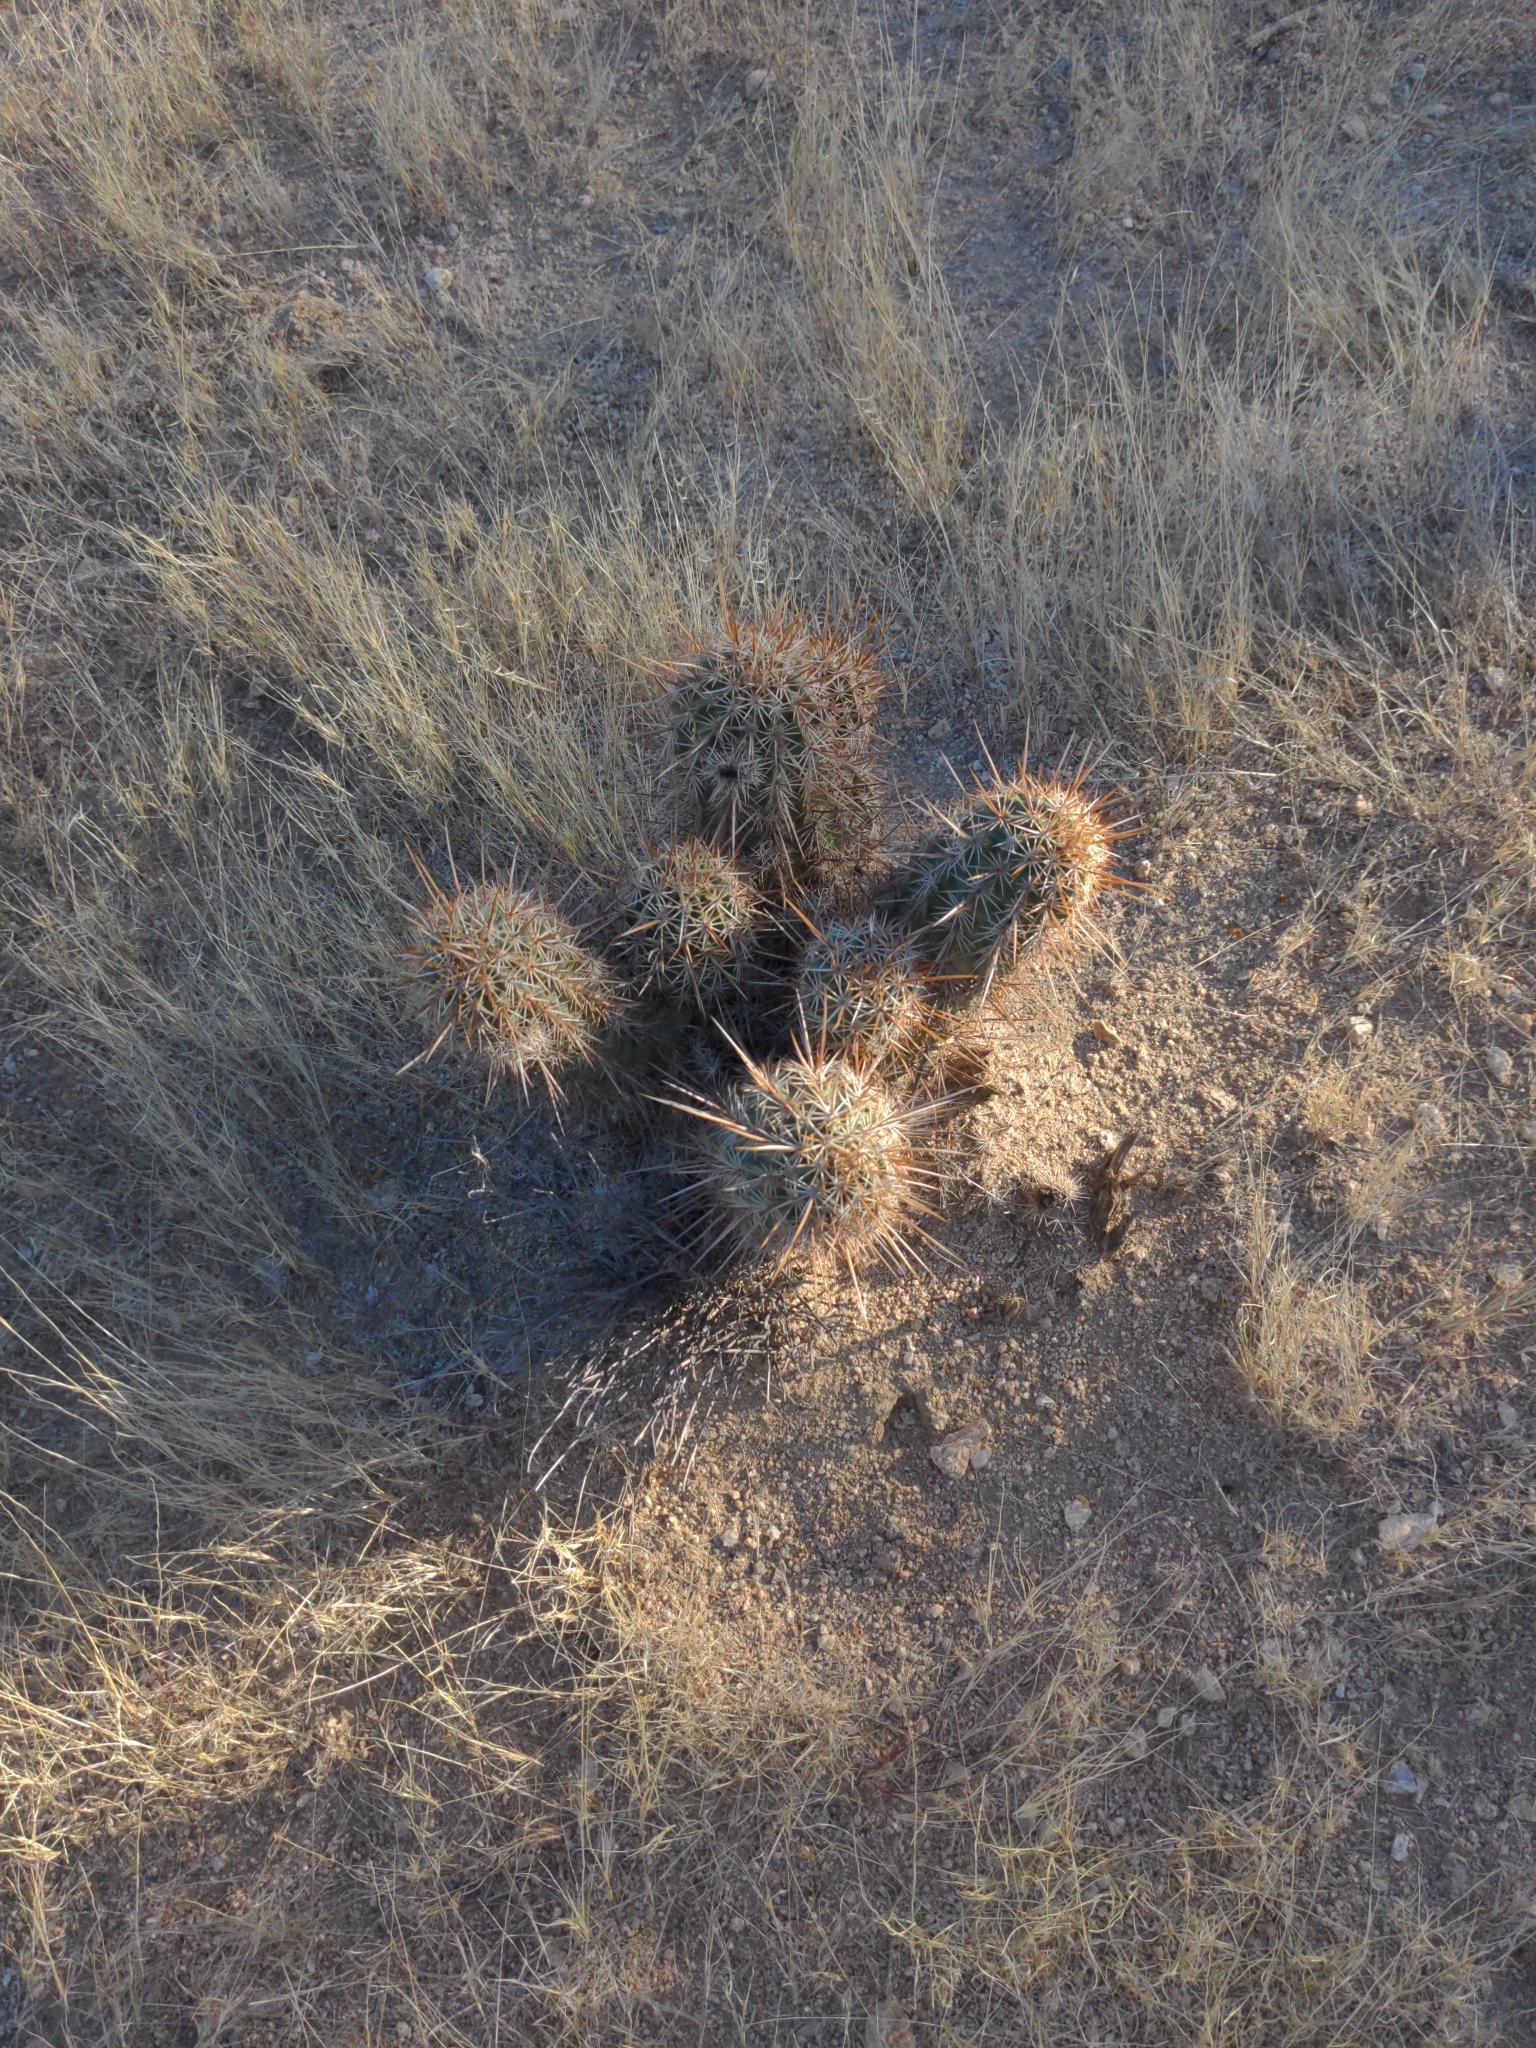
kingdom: Plantae
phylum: Tracheophyta
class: Magnoliopsida
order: Caryophyllales
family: Cactaceae
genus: Echinocereus
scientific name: Echinocereus engelmannii
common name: Engelmann's hedgehog cactus
